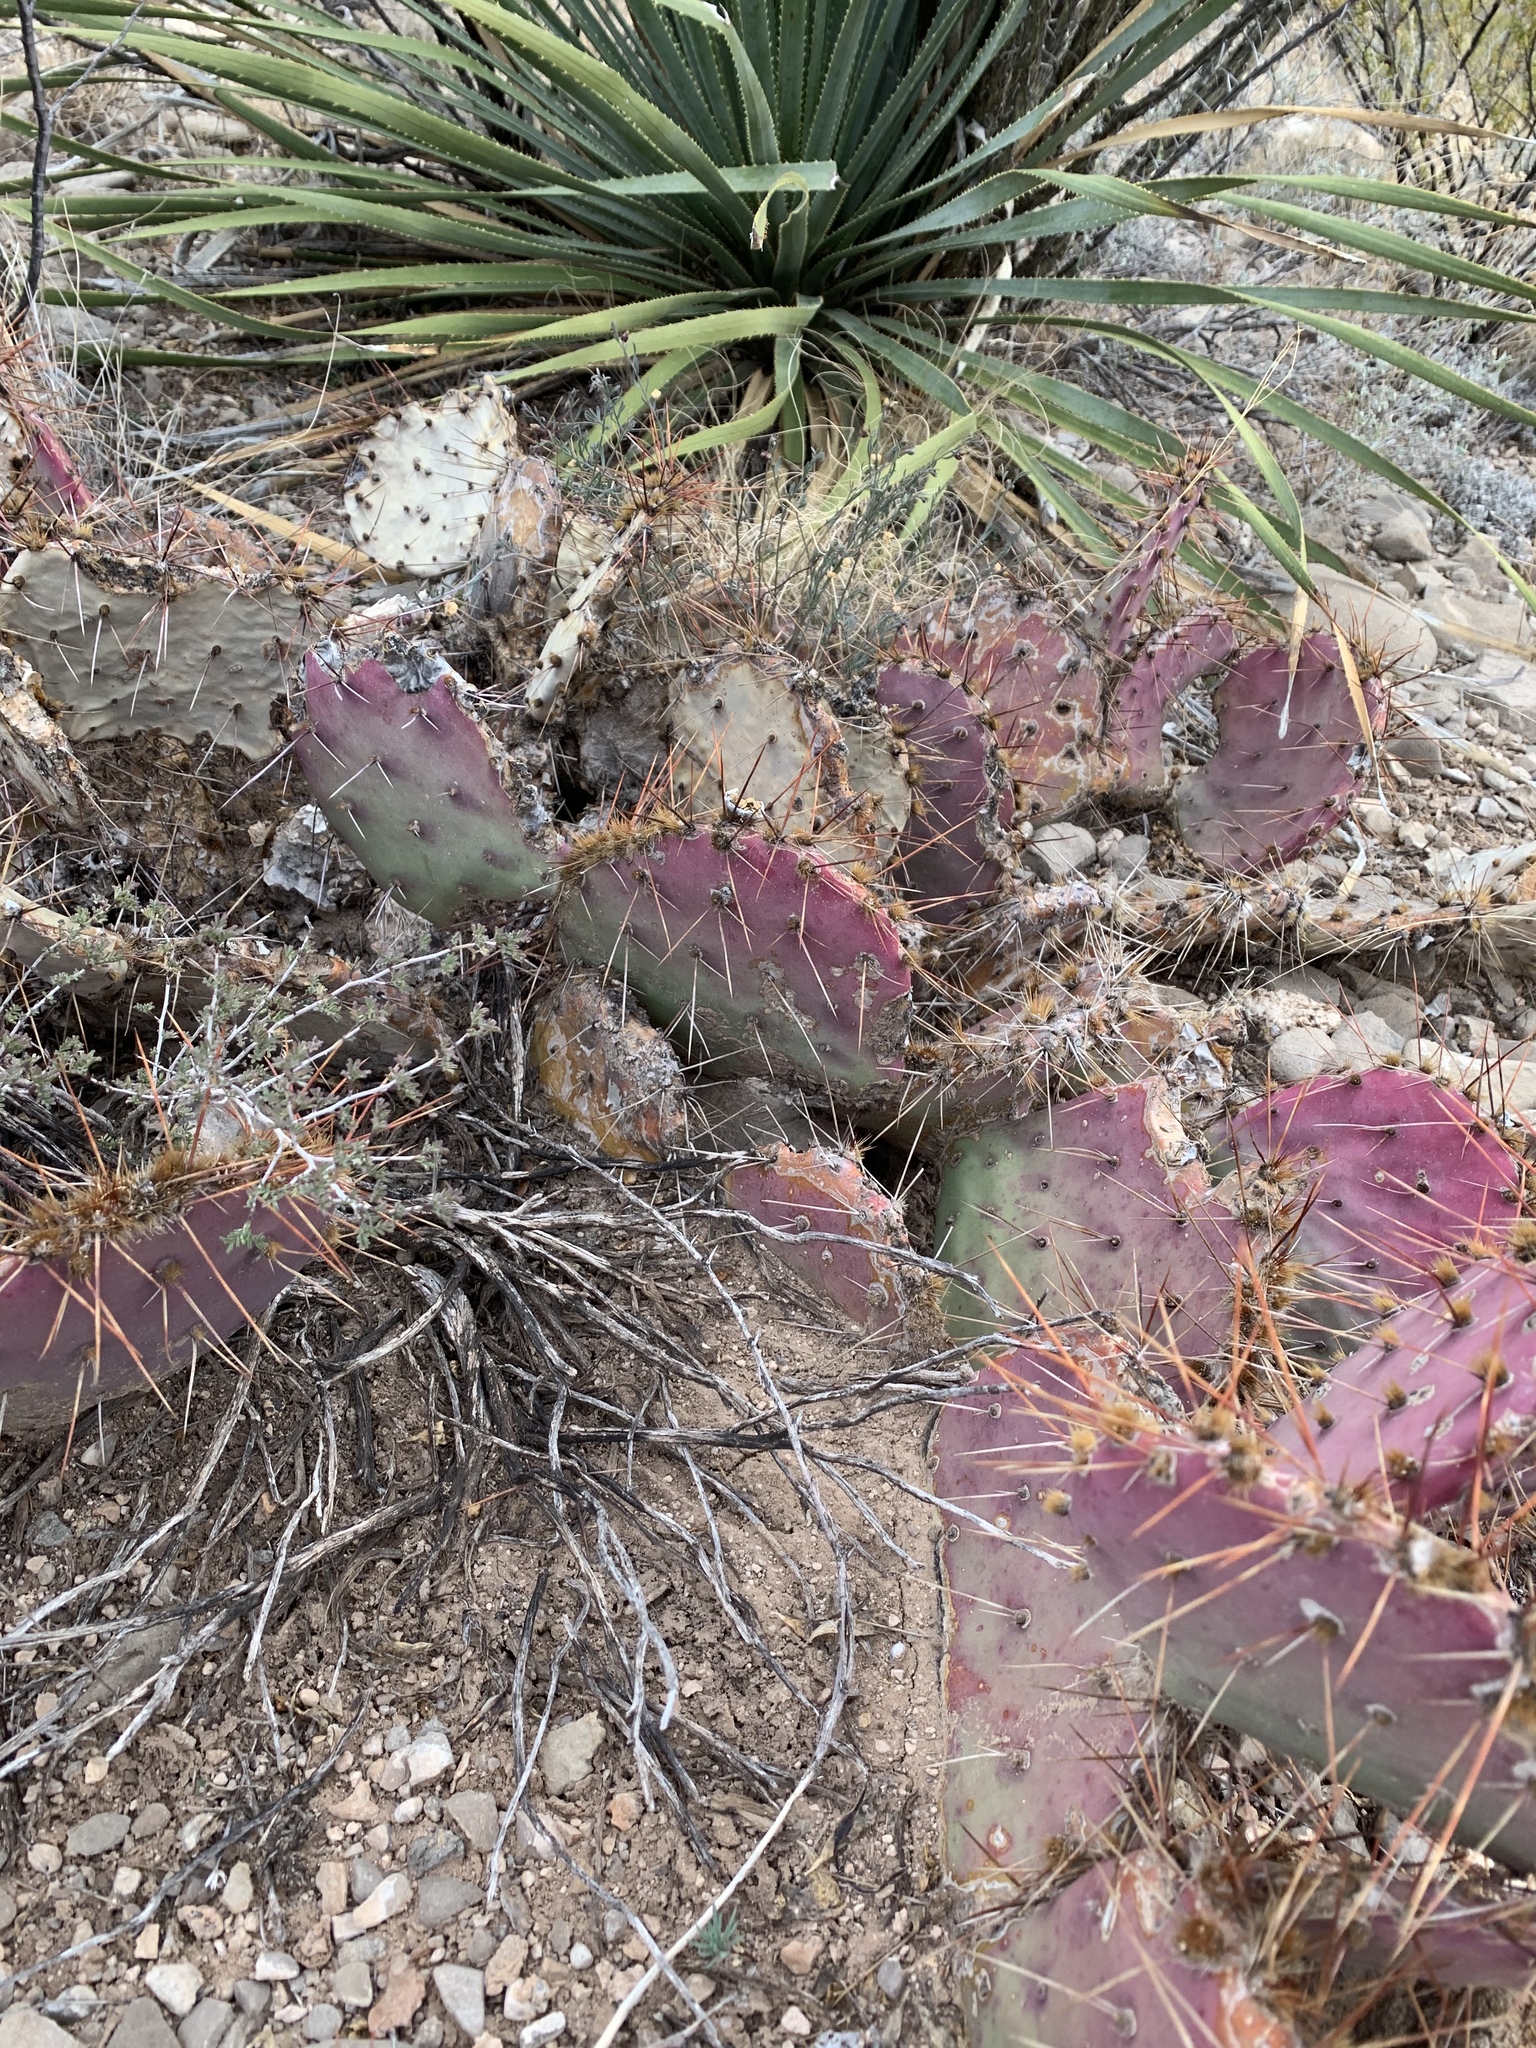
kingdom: Plantae
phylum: Tracheophyta
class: Magnoliopsida
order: Caryophyllales
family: Cactaceae
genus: Opuntia
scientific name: Opuntia macrocentra
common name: Purple prickly-pear
